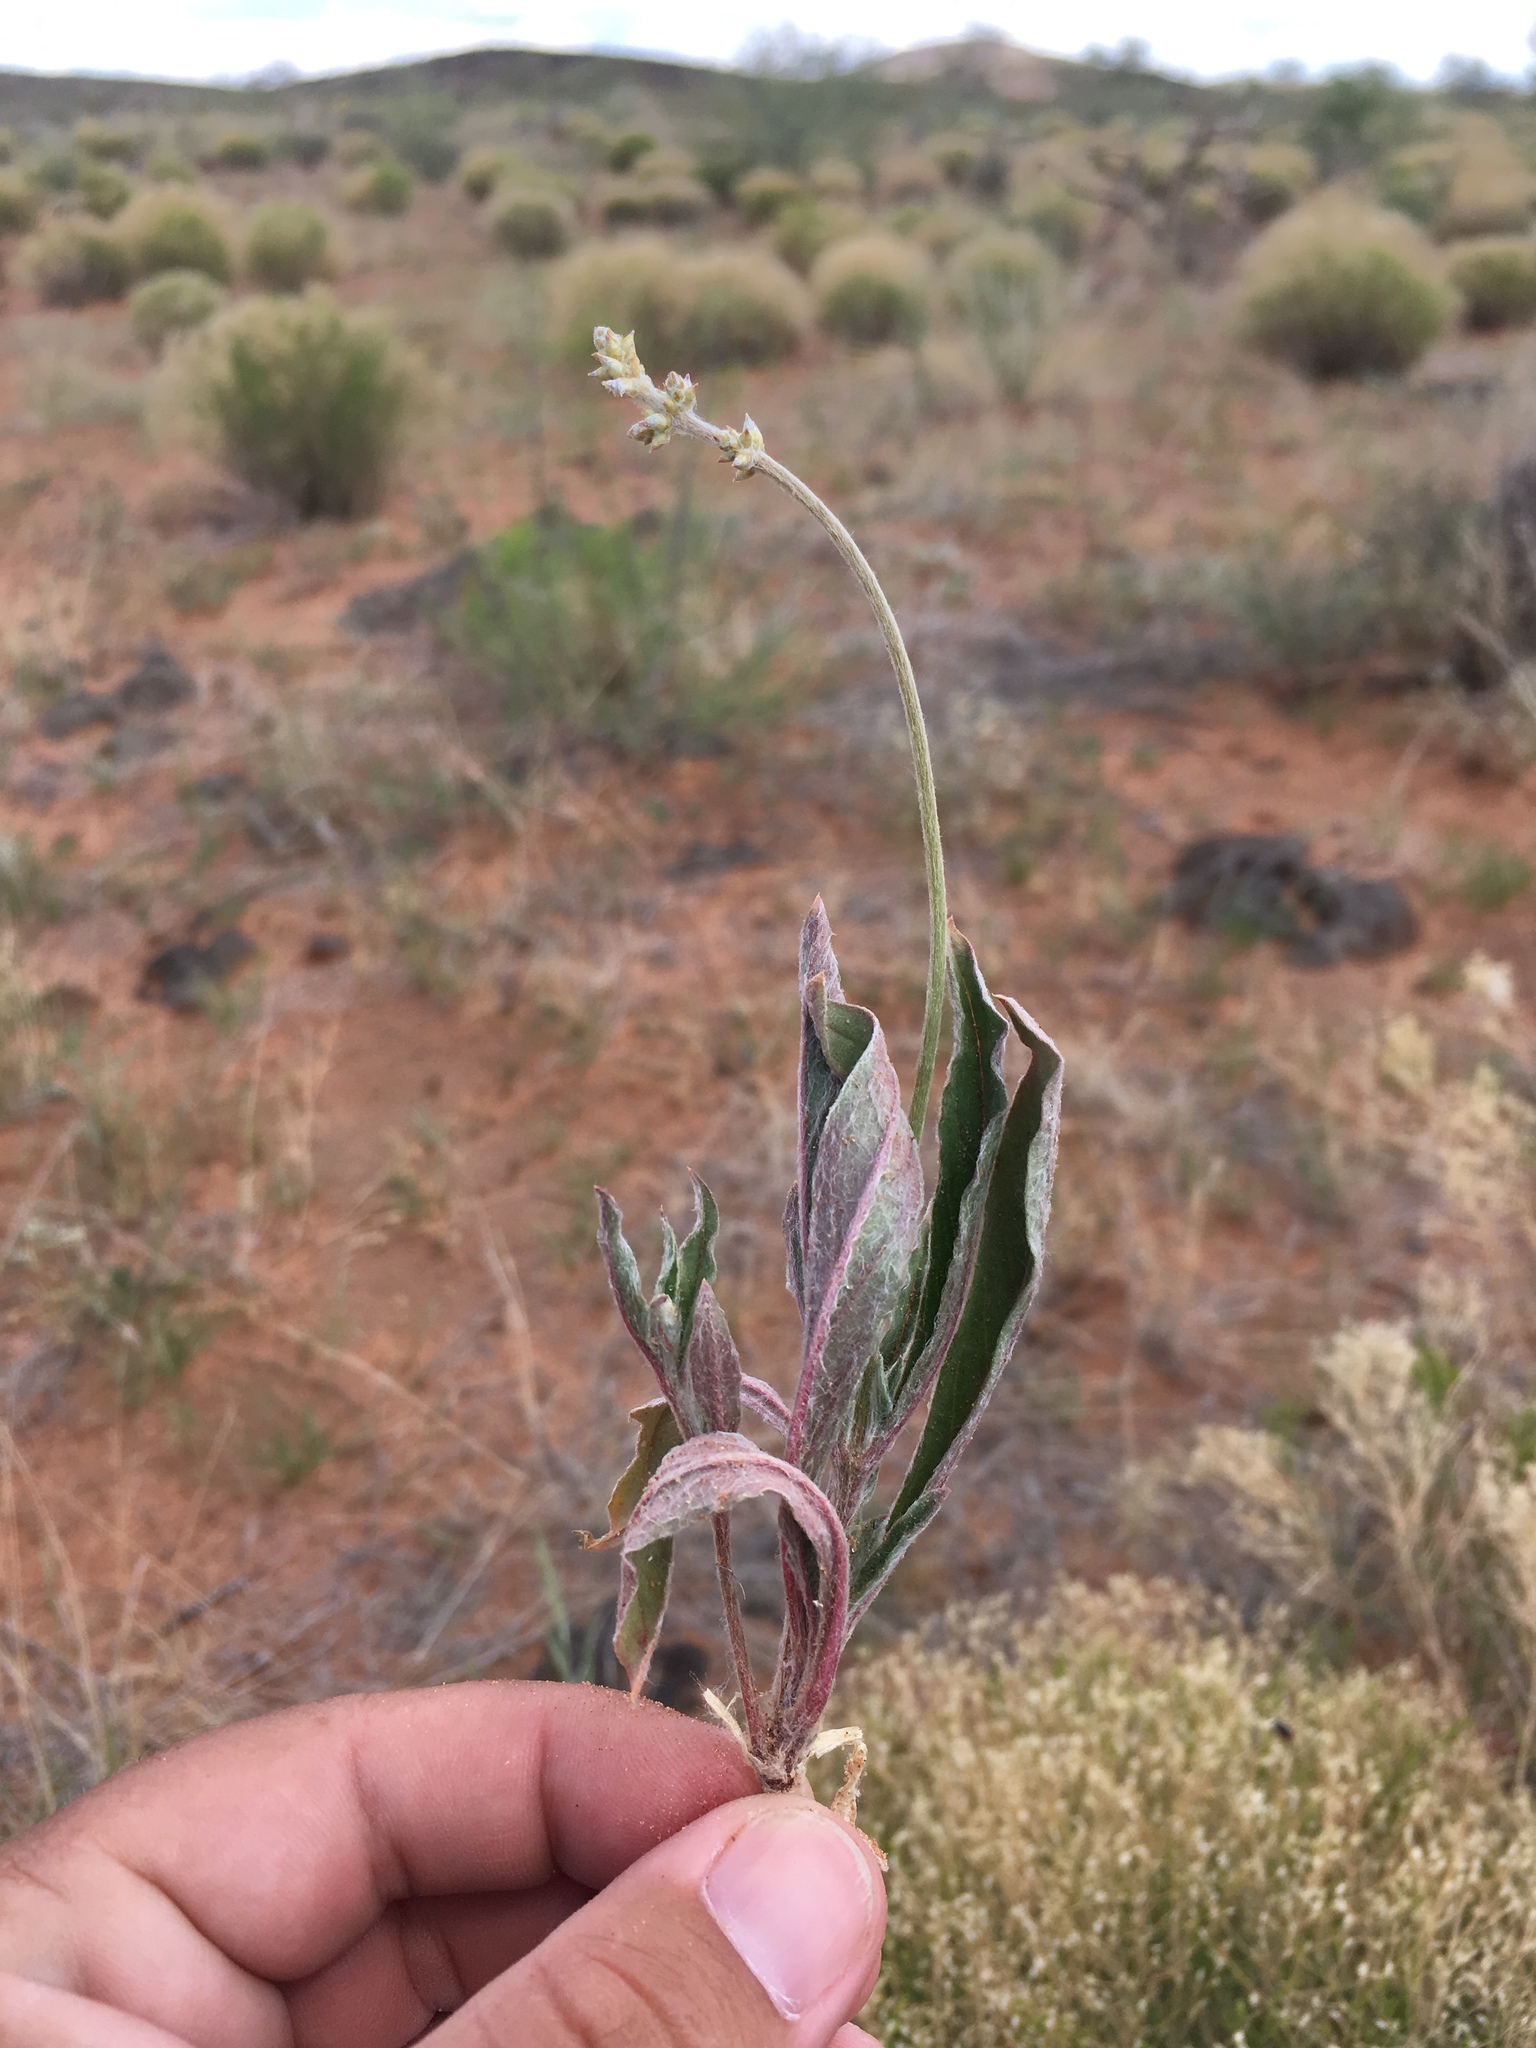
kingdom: Plantae
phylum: Tracheophyta
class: Magnoliopsida
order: Caryophyllales
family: Amaranthaceae
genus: Froelichia
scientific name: Froelichia gracilis
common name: Slender cottonweed
